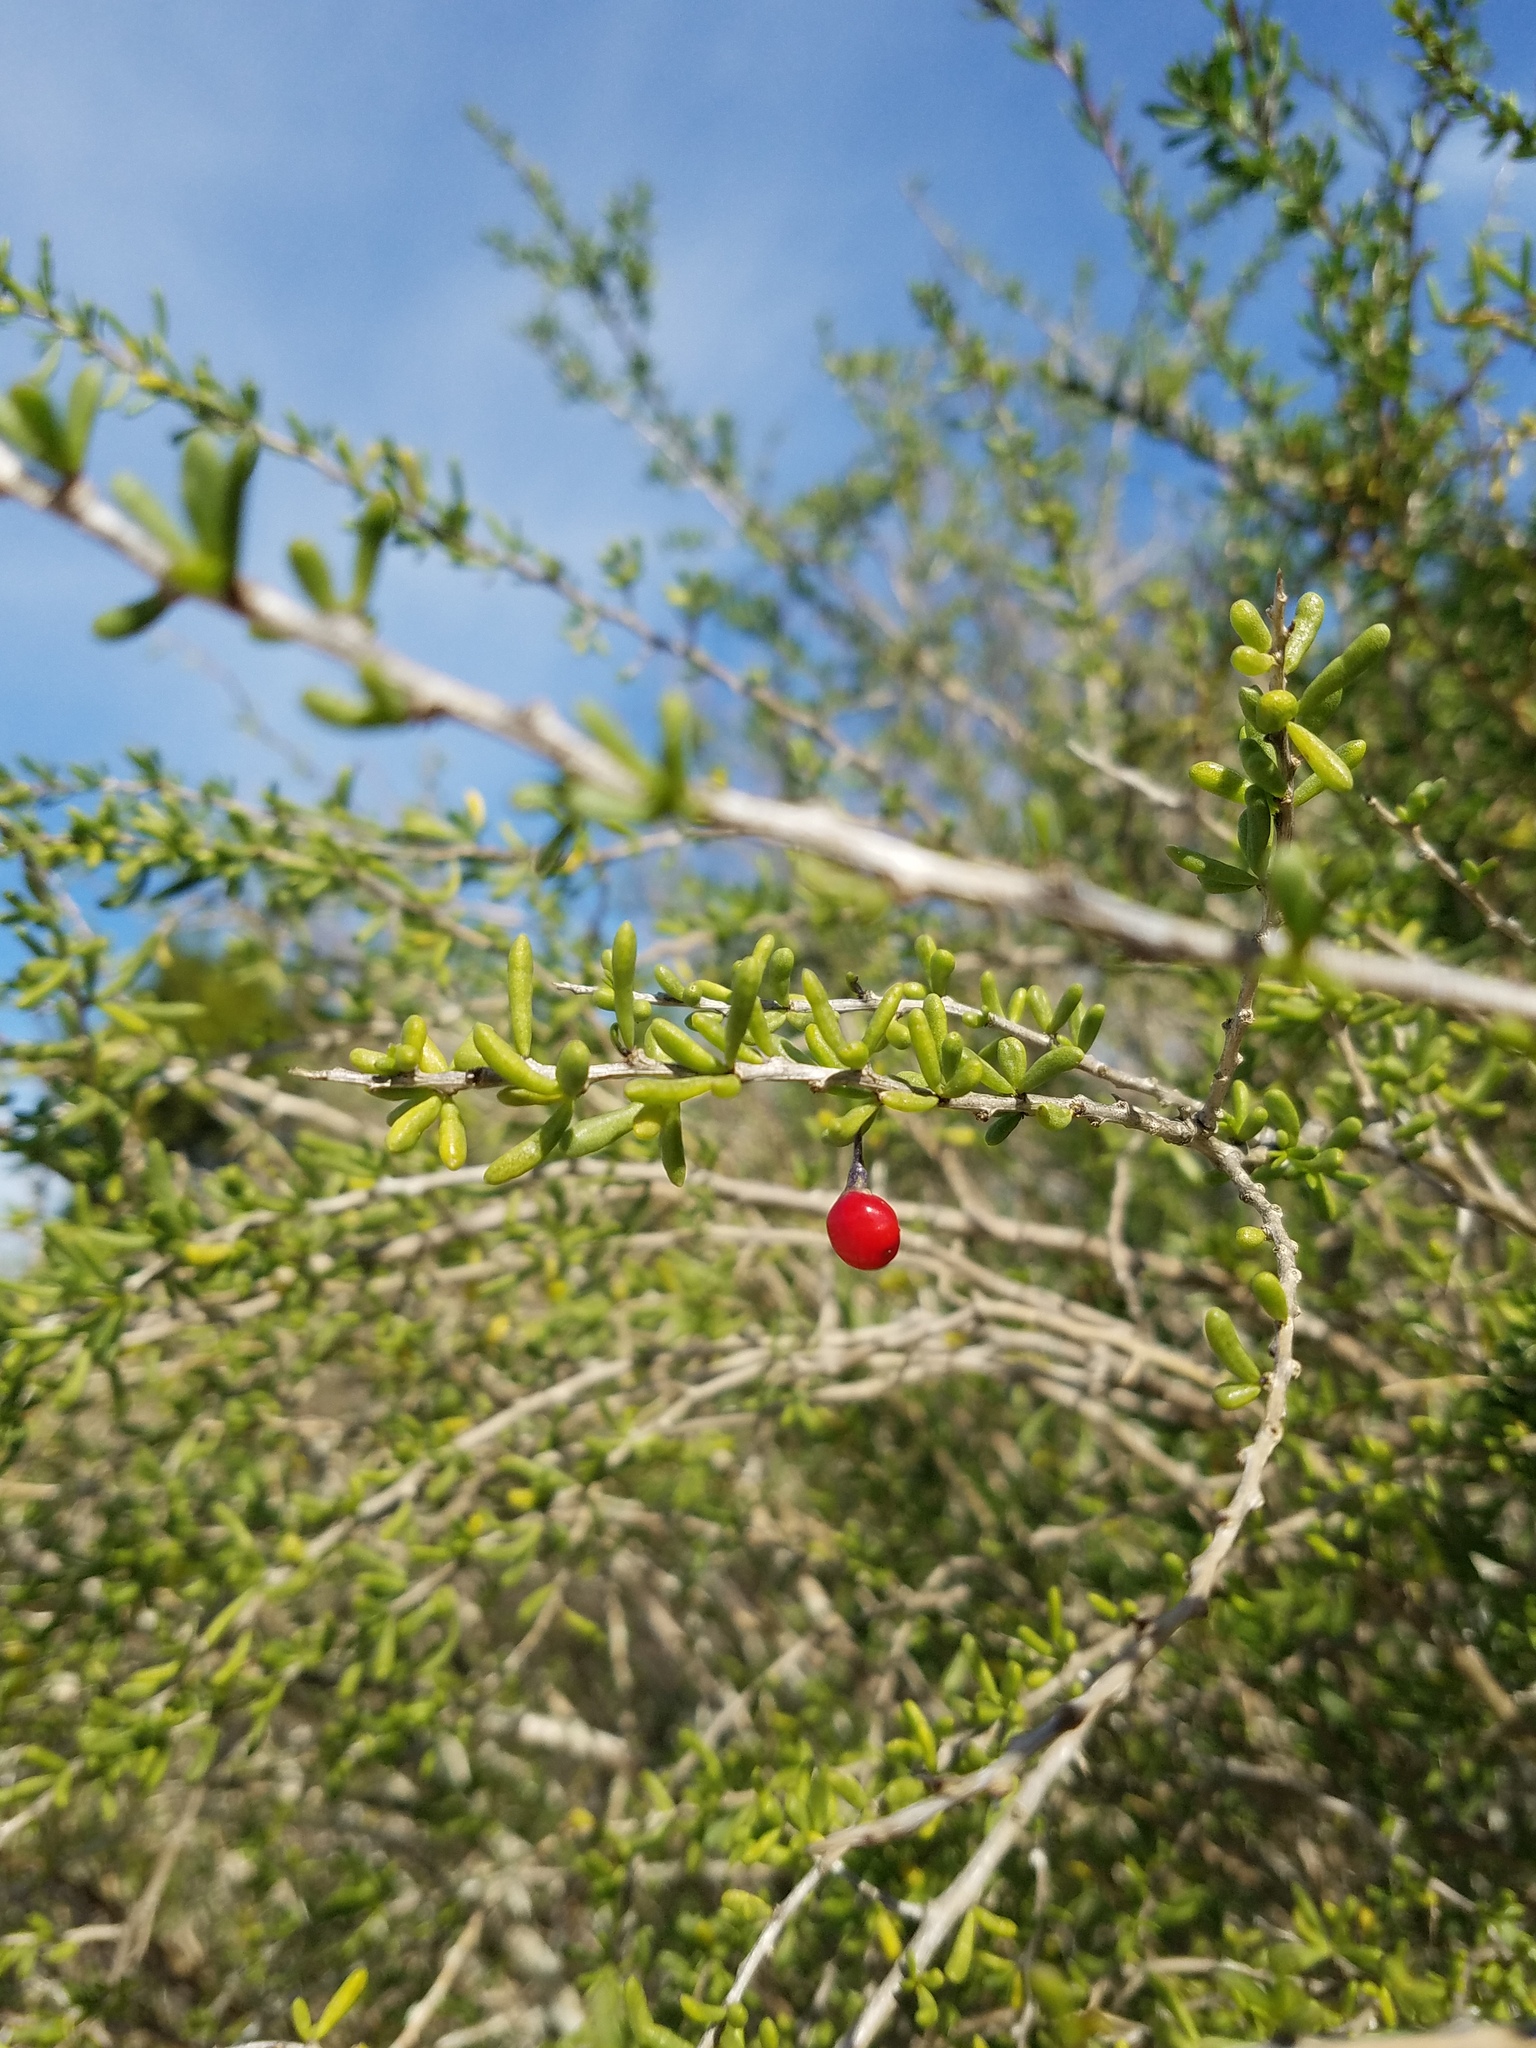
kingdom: Plantae
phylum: Tracheophyta
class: Magnoliopsida
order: Solanales
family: Solanaceae
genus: Lycium
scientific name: Lycium carolinianum
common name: Christmasberry
